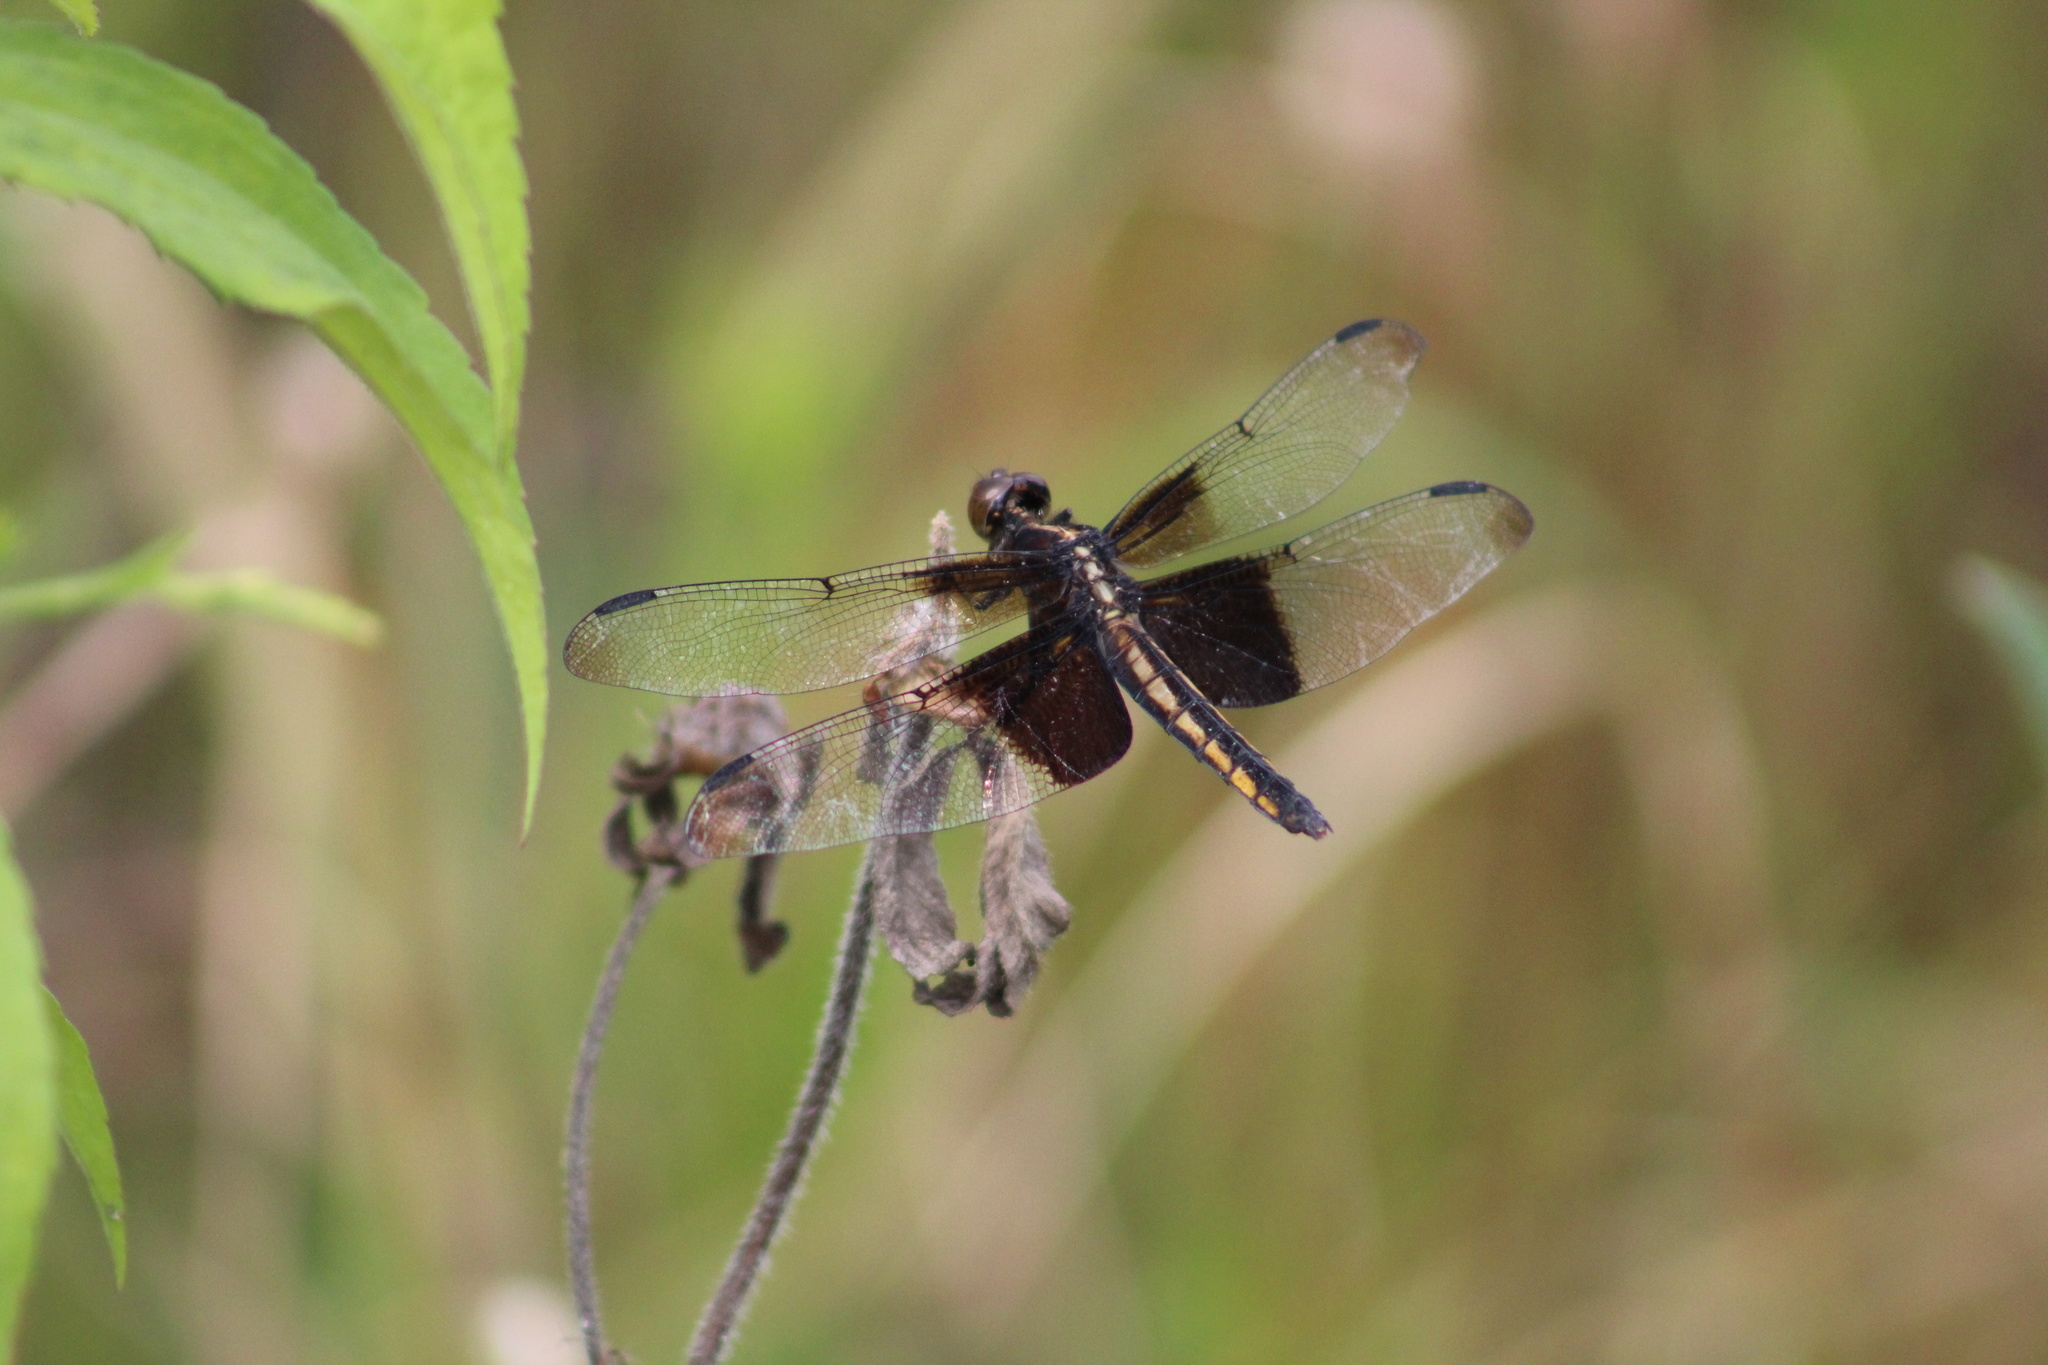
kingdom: Animalia
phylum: Arthropoda
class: Insecta
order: Odonata
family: Libellulidae
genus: Libellula
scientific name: Libellula luctuosa
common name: Widow skimmer
